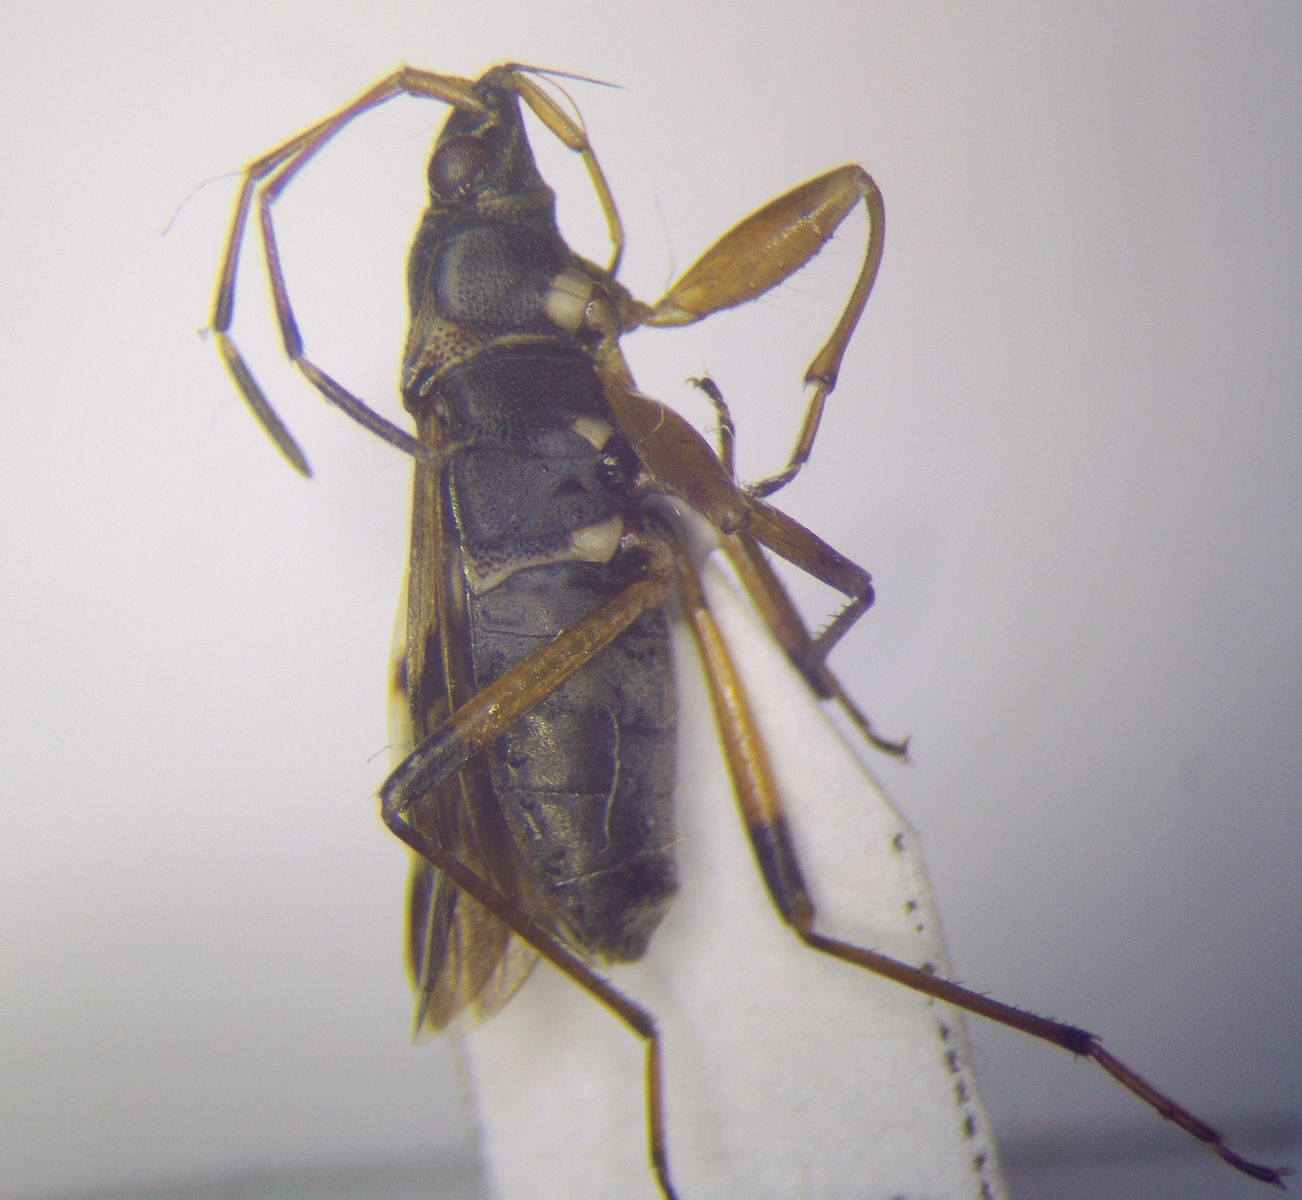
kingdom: Animalia
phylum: Arthropoda
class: Insecta
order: Hemiptera
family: Rhyparochromidae
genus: Beosus
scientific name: Beosus maritimus
